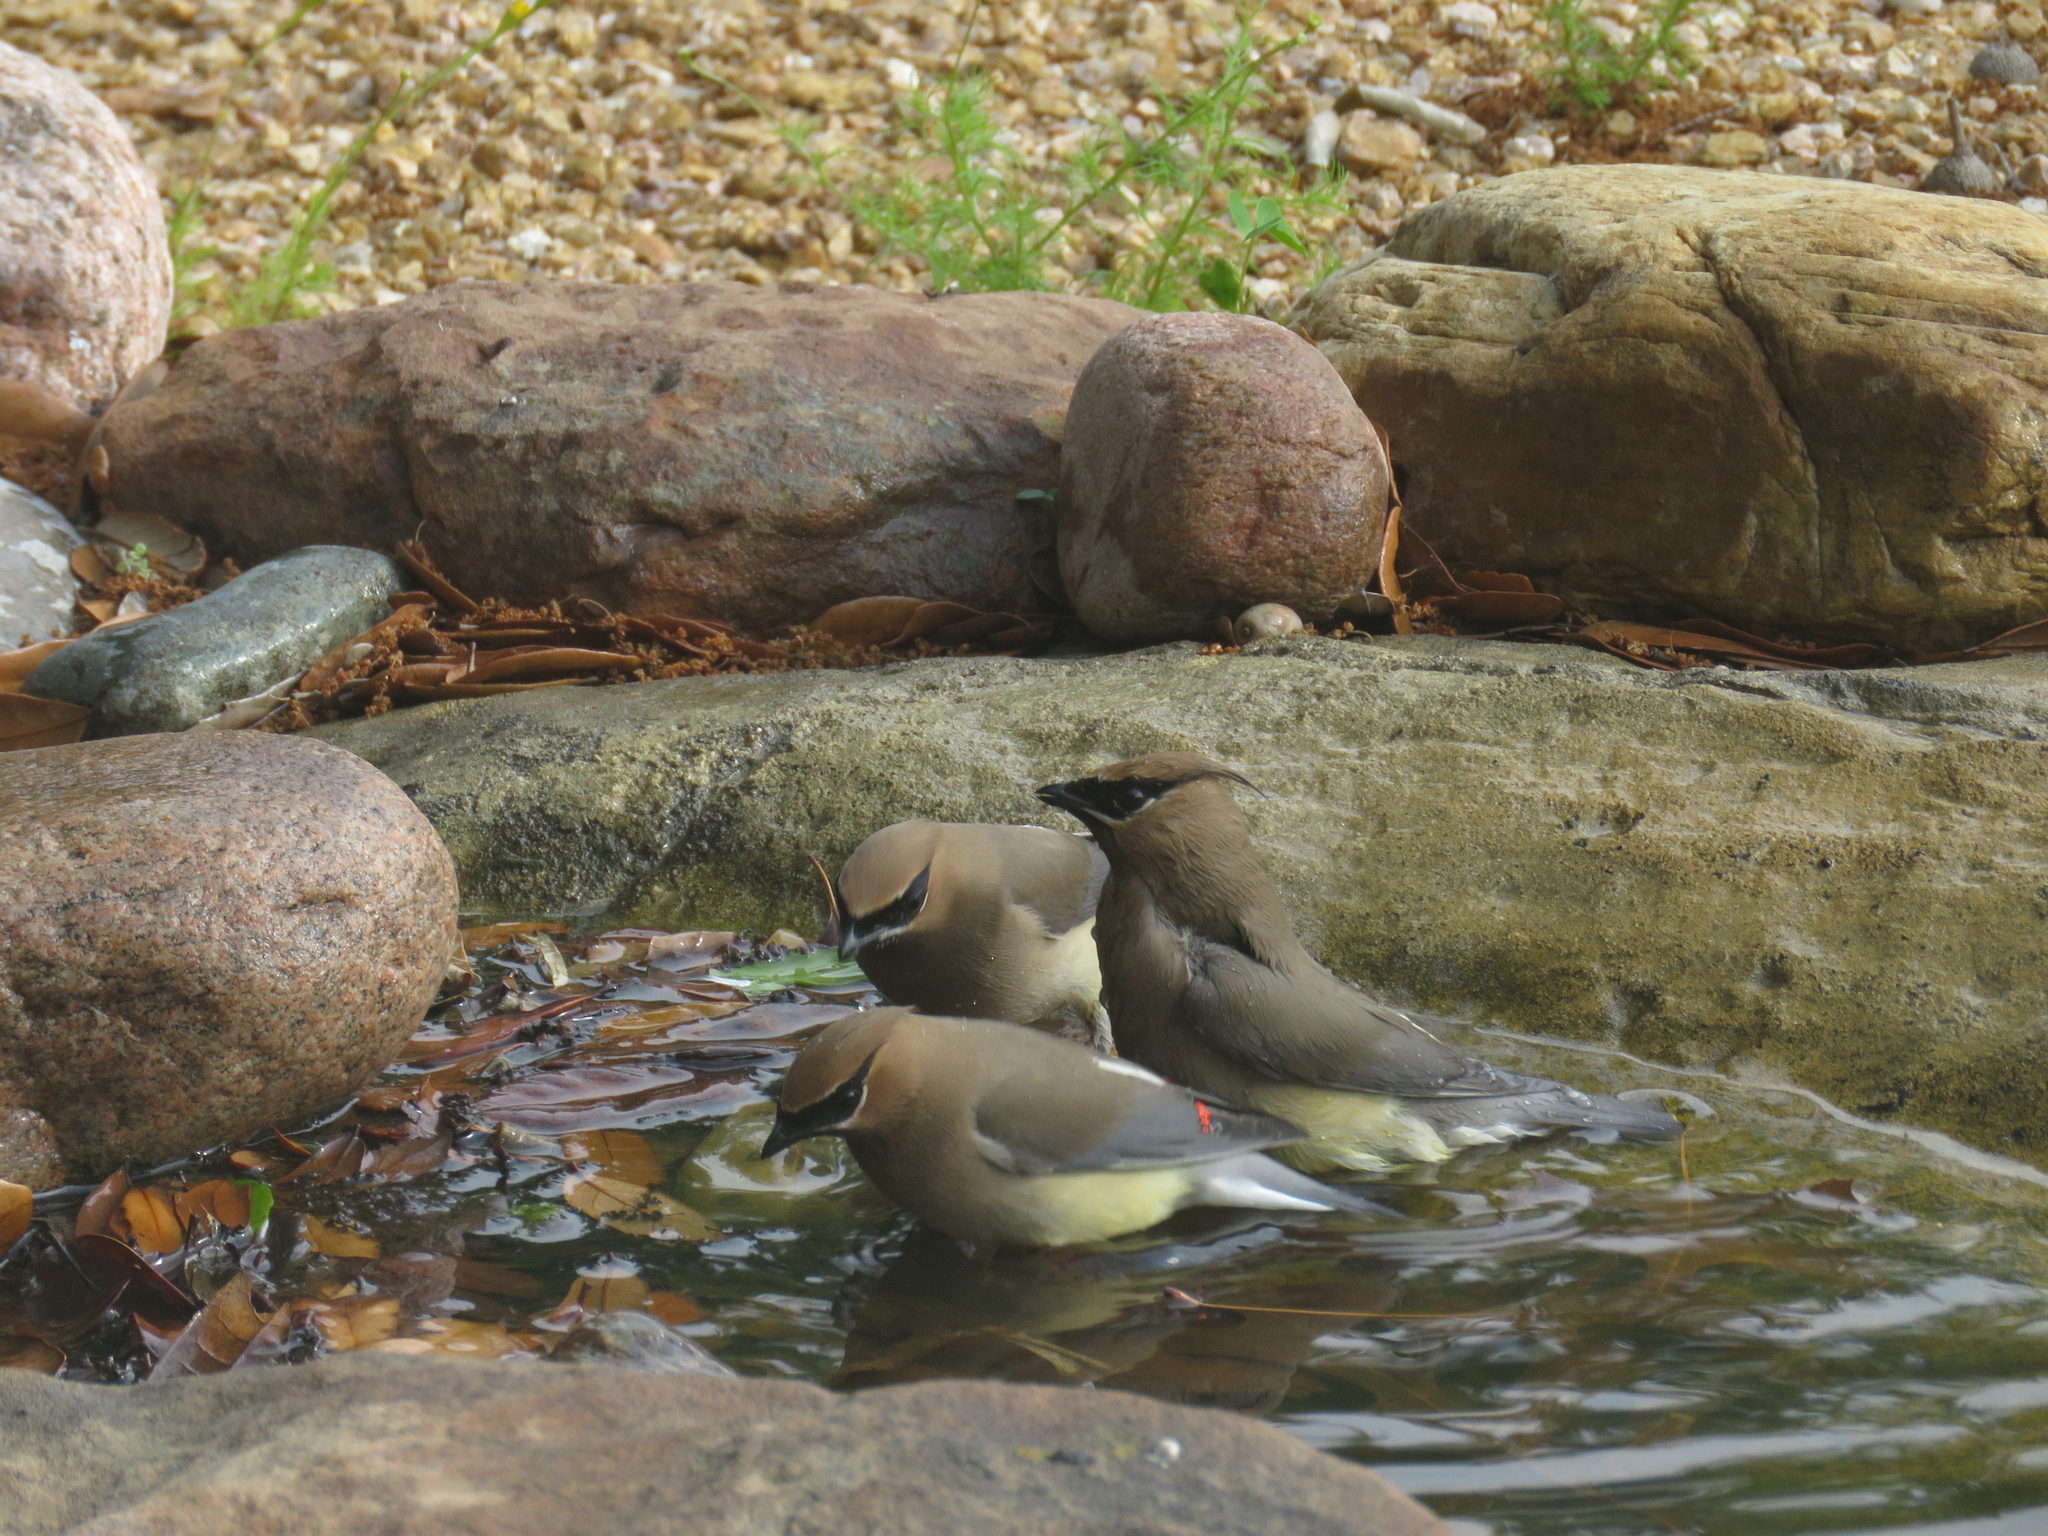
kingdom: Animalia
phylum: Chordata
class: Aves
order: Passeriformes
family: Bombycillidae
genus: Bombycilla
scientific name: Bombycilla cedrorum
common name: Cedar waxwing
